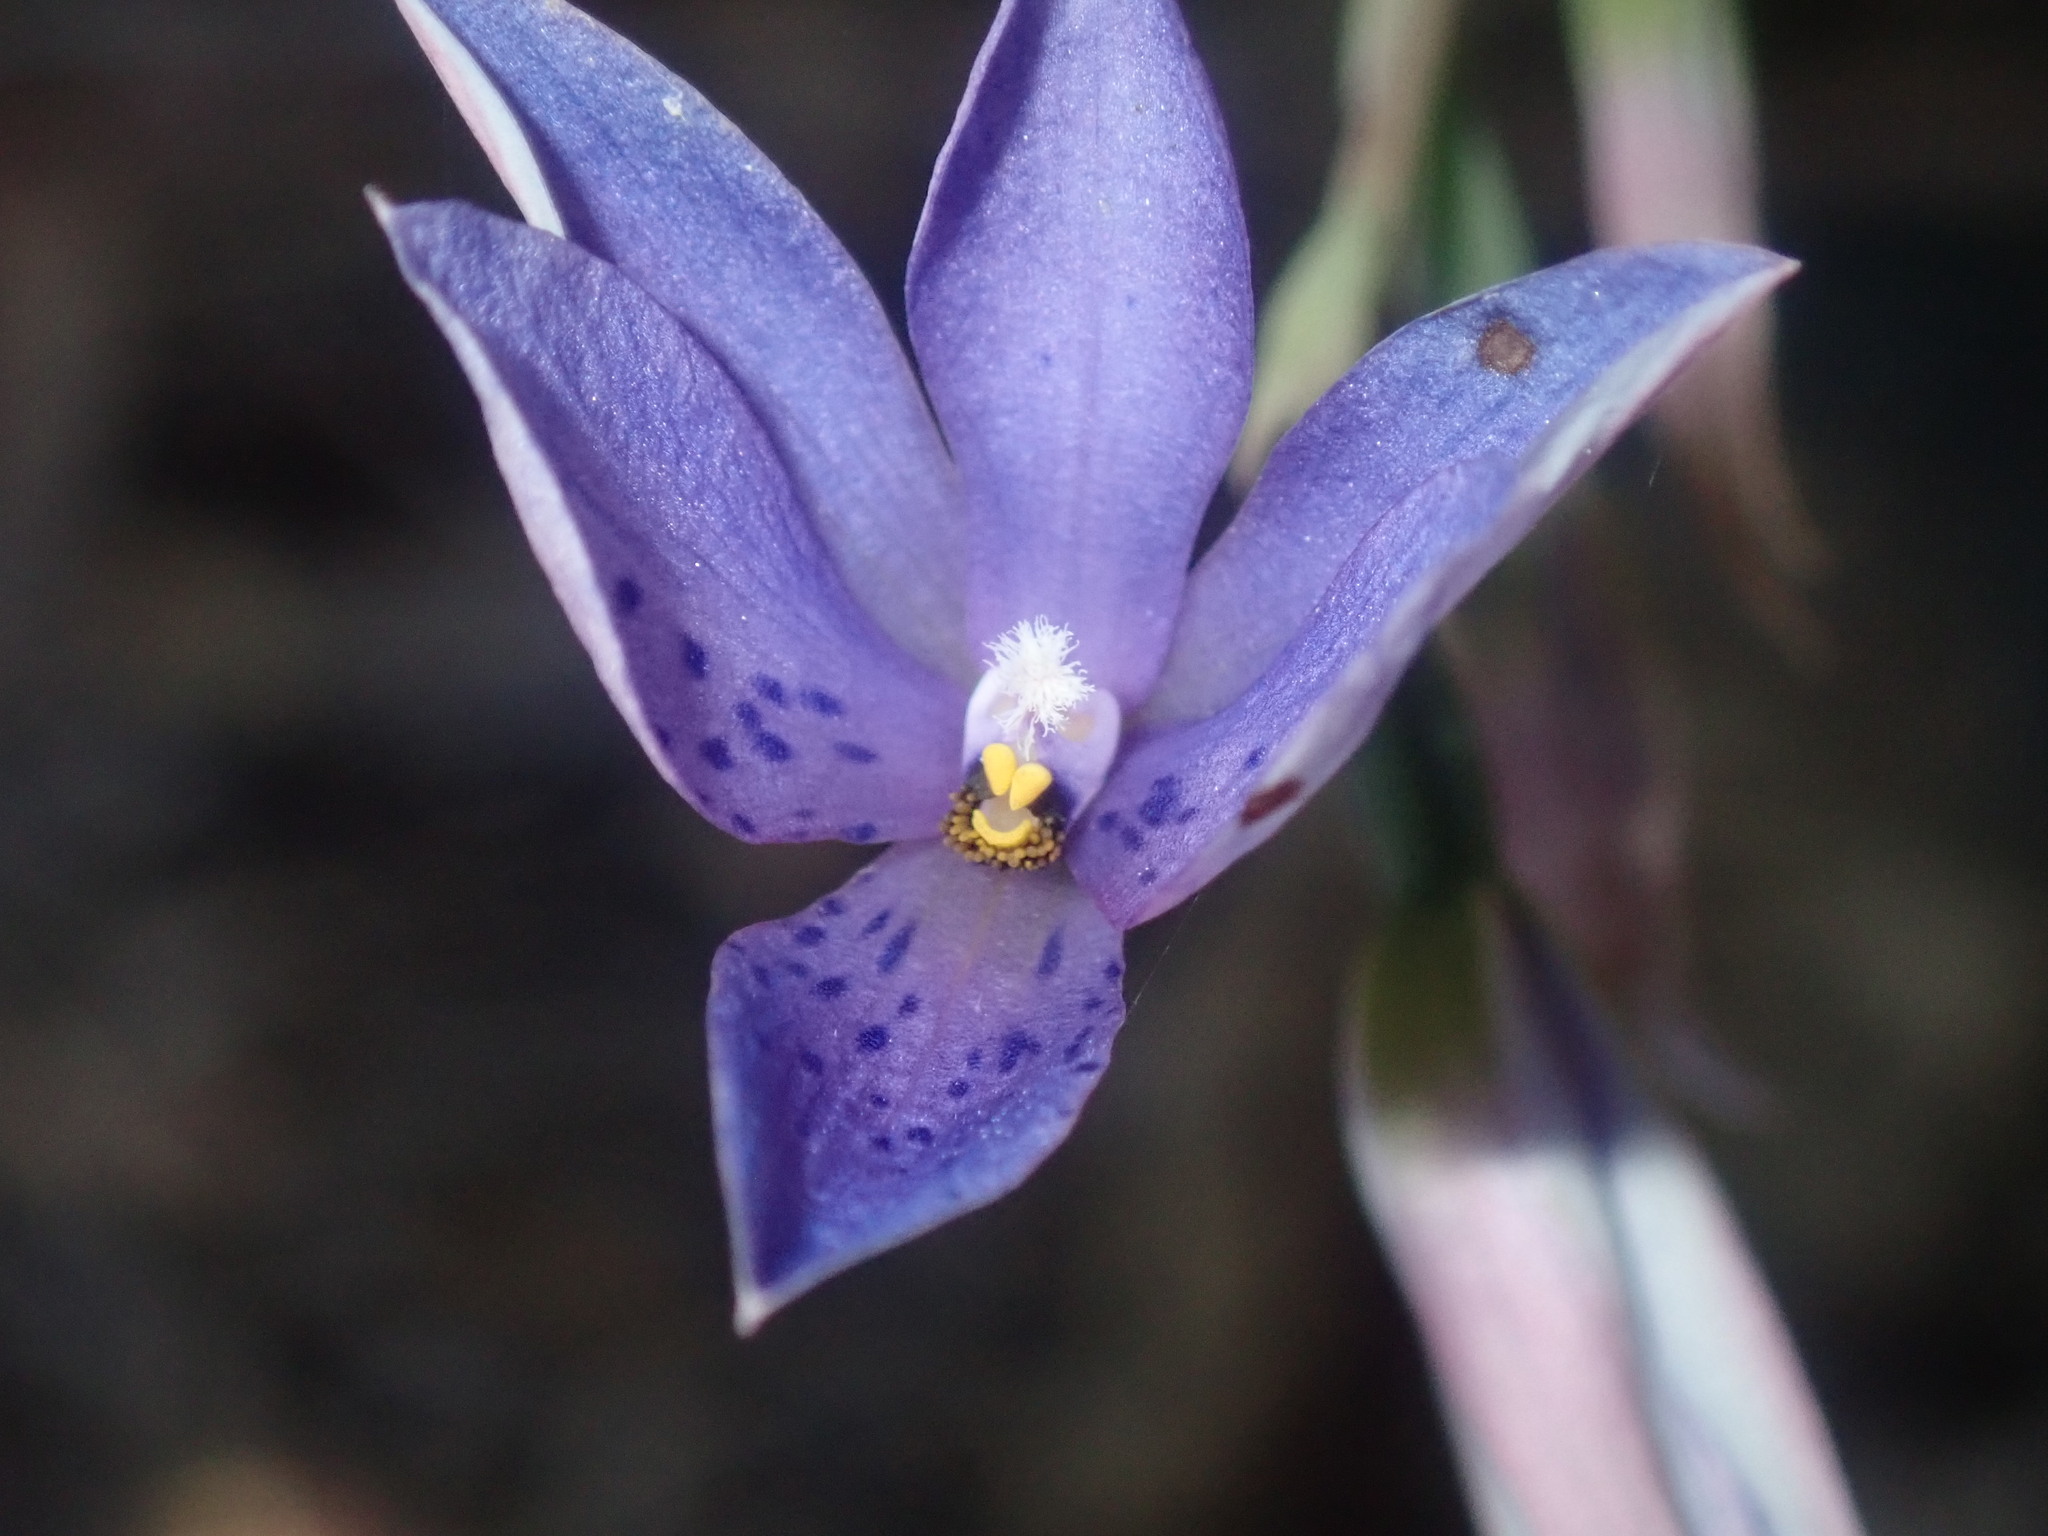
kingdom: Plantae
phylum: Tracheophyta
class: Liliopsida
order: Asparagales
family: Orchidaceae
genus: Thelymitra
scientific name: Thelymitra ixioides
